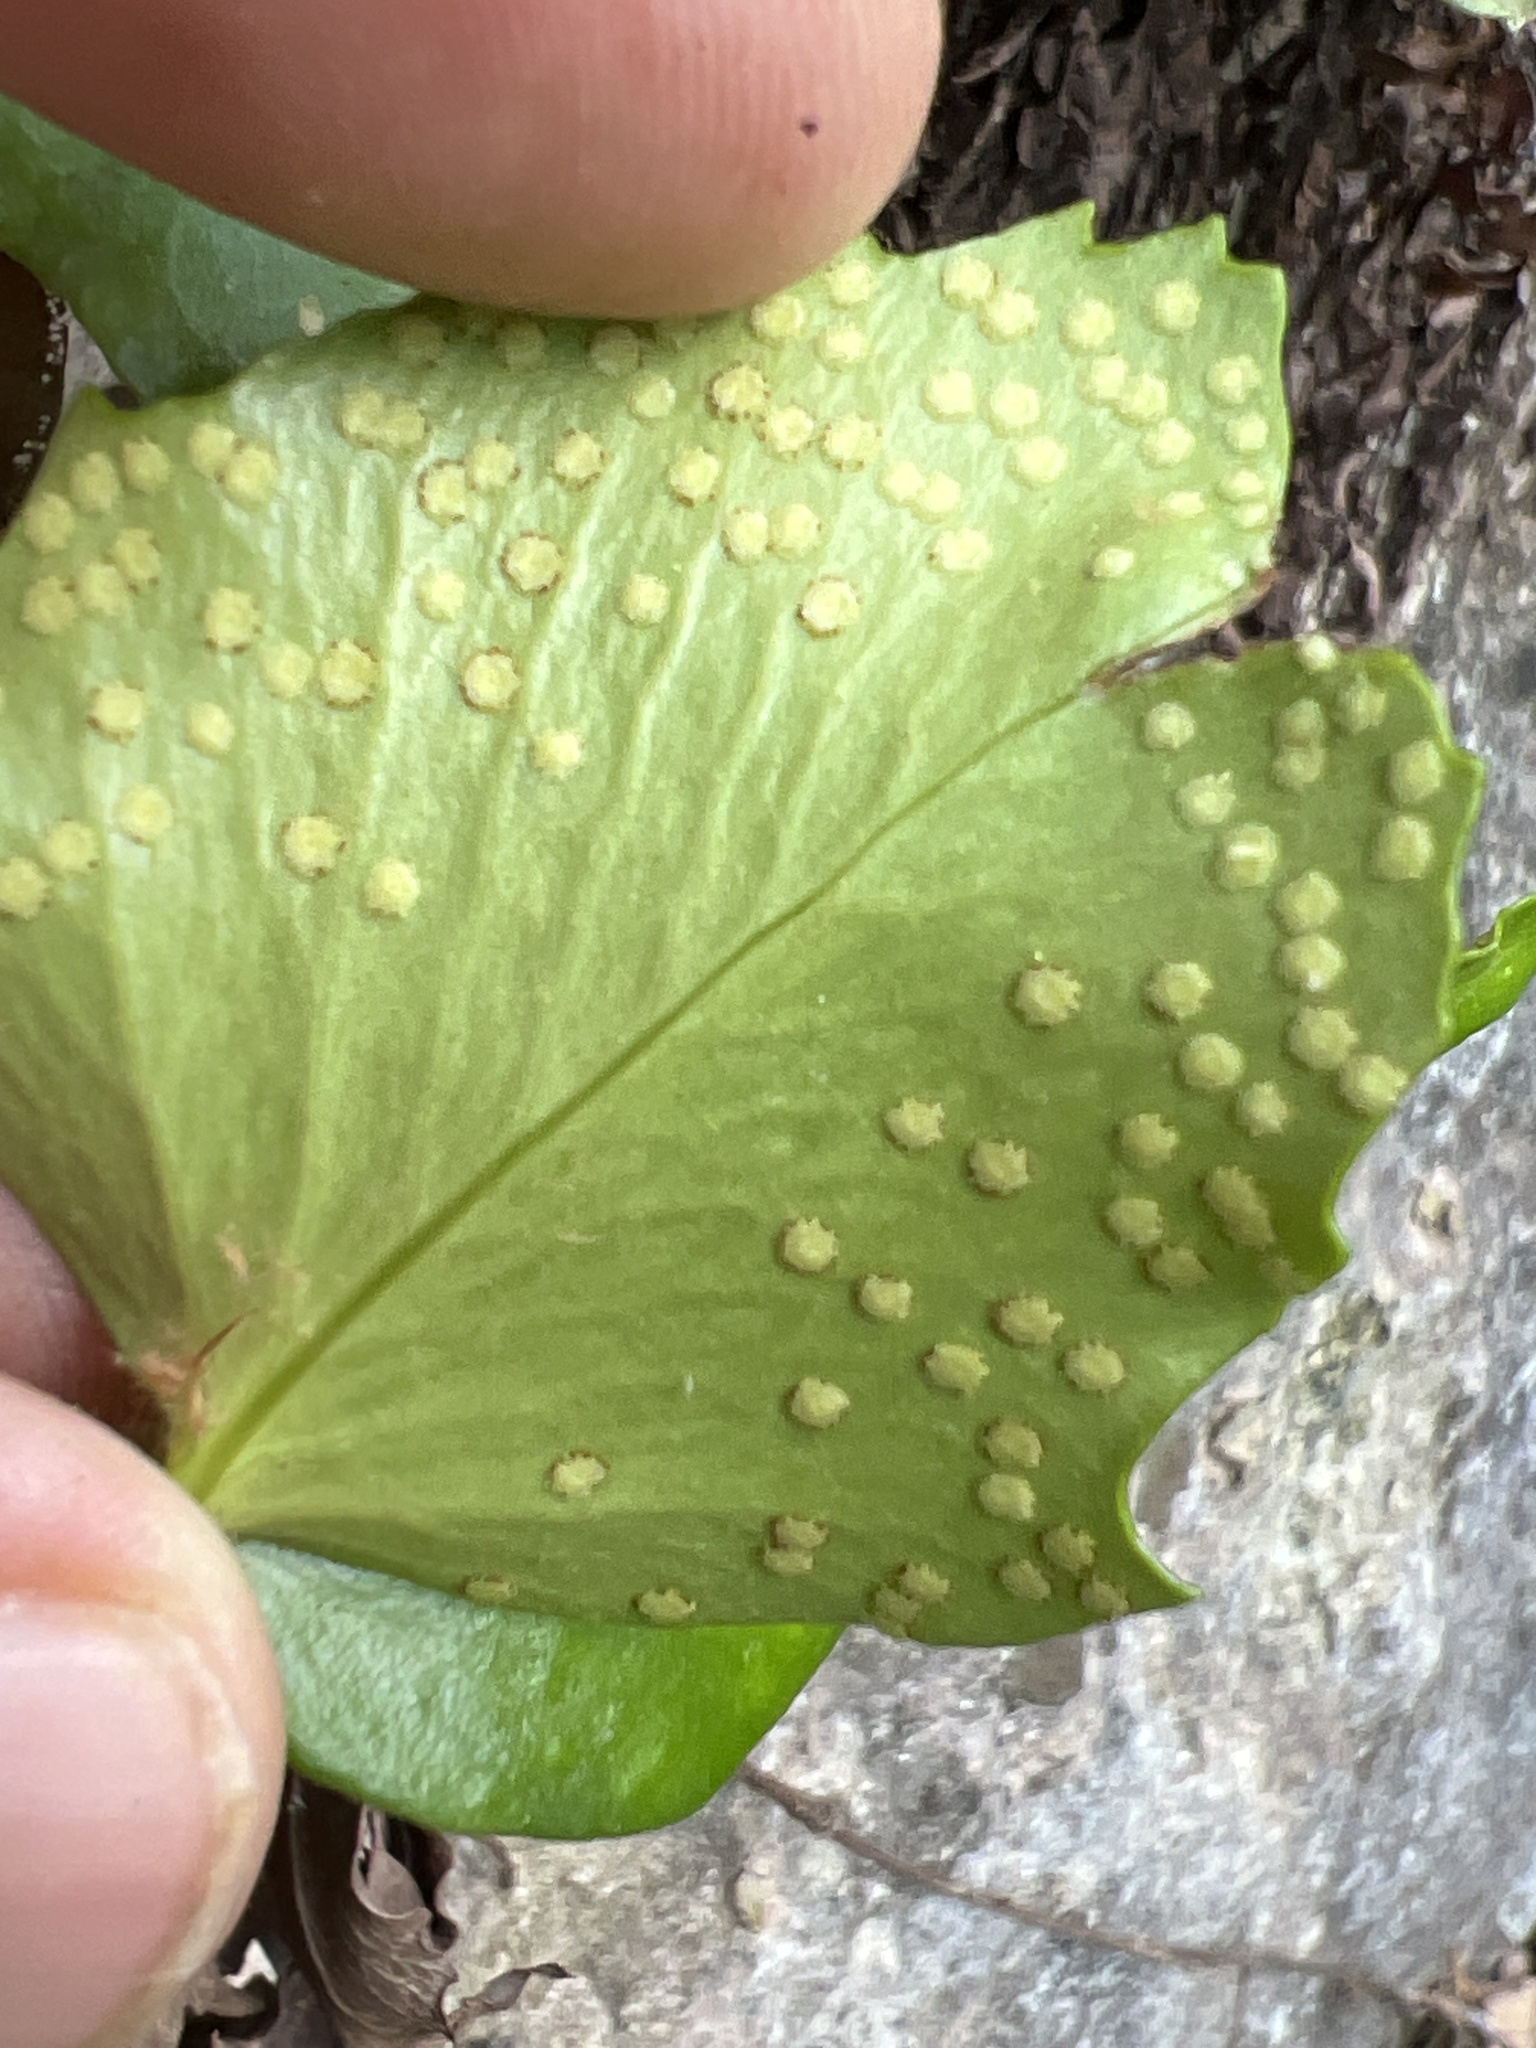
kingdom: Plantae
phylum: Tracheophyta
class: Polypodiopsida
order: Polypodiales
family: Dryopteridaceae
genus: Cyrtomium
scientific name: Cyrtomium falcatum
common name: House holly-fern
